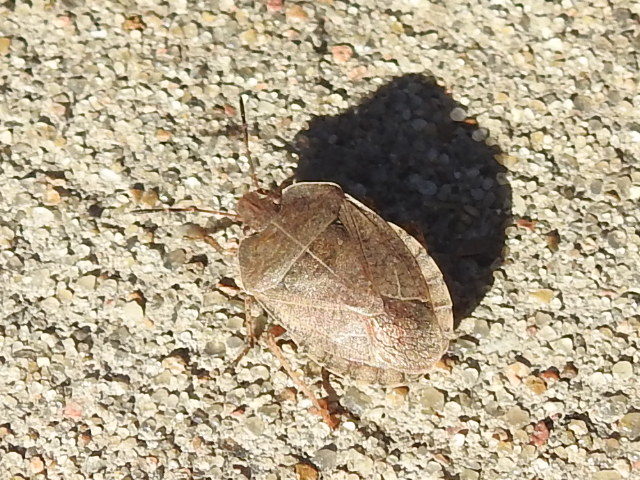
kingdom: Animalia
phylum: Arthropoda
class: Insecta
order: Hemiptera
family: Pentatomidae
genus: Menecles
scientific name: Menecles insertus
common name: Elf shoe stink bug
